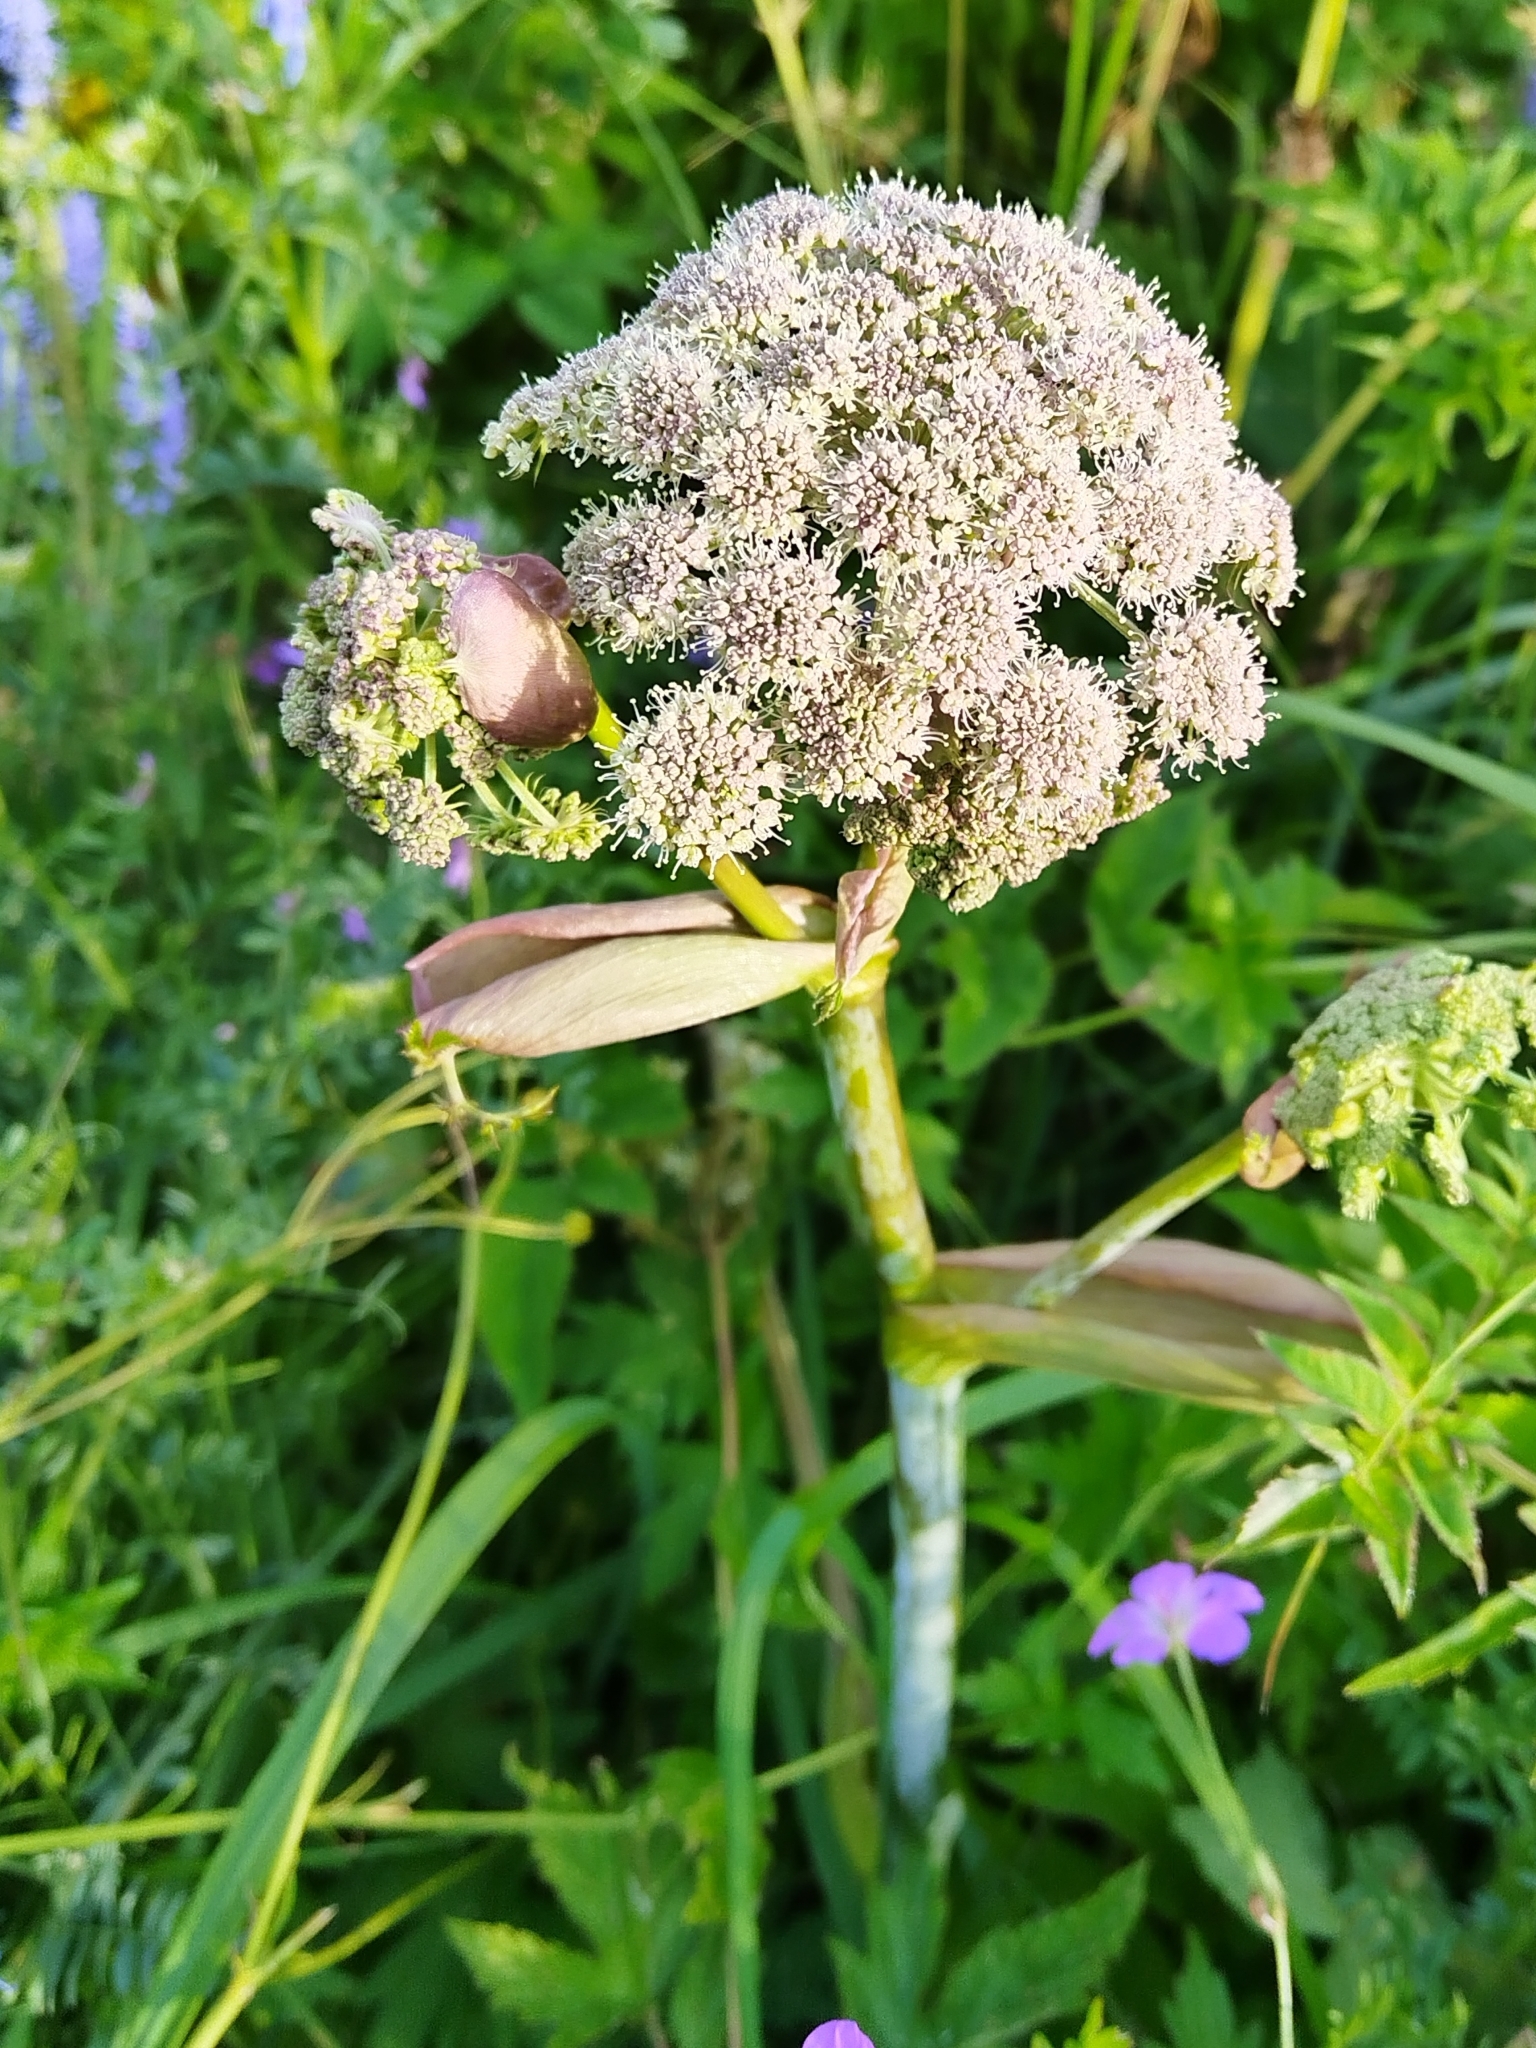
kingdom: Plantae
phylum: Tracheophyta
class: Magnoliopsida
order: Apiales
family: Apiaceae
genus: Angelica
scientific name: Angelica sylvestris
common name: Wild angelica
